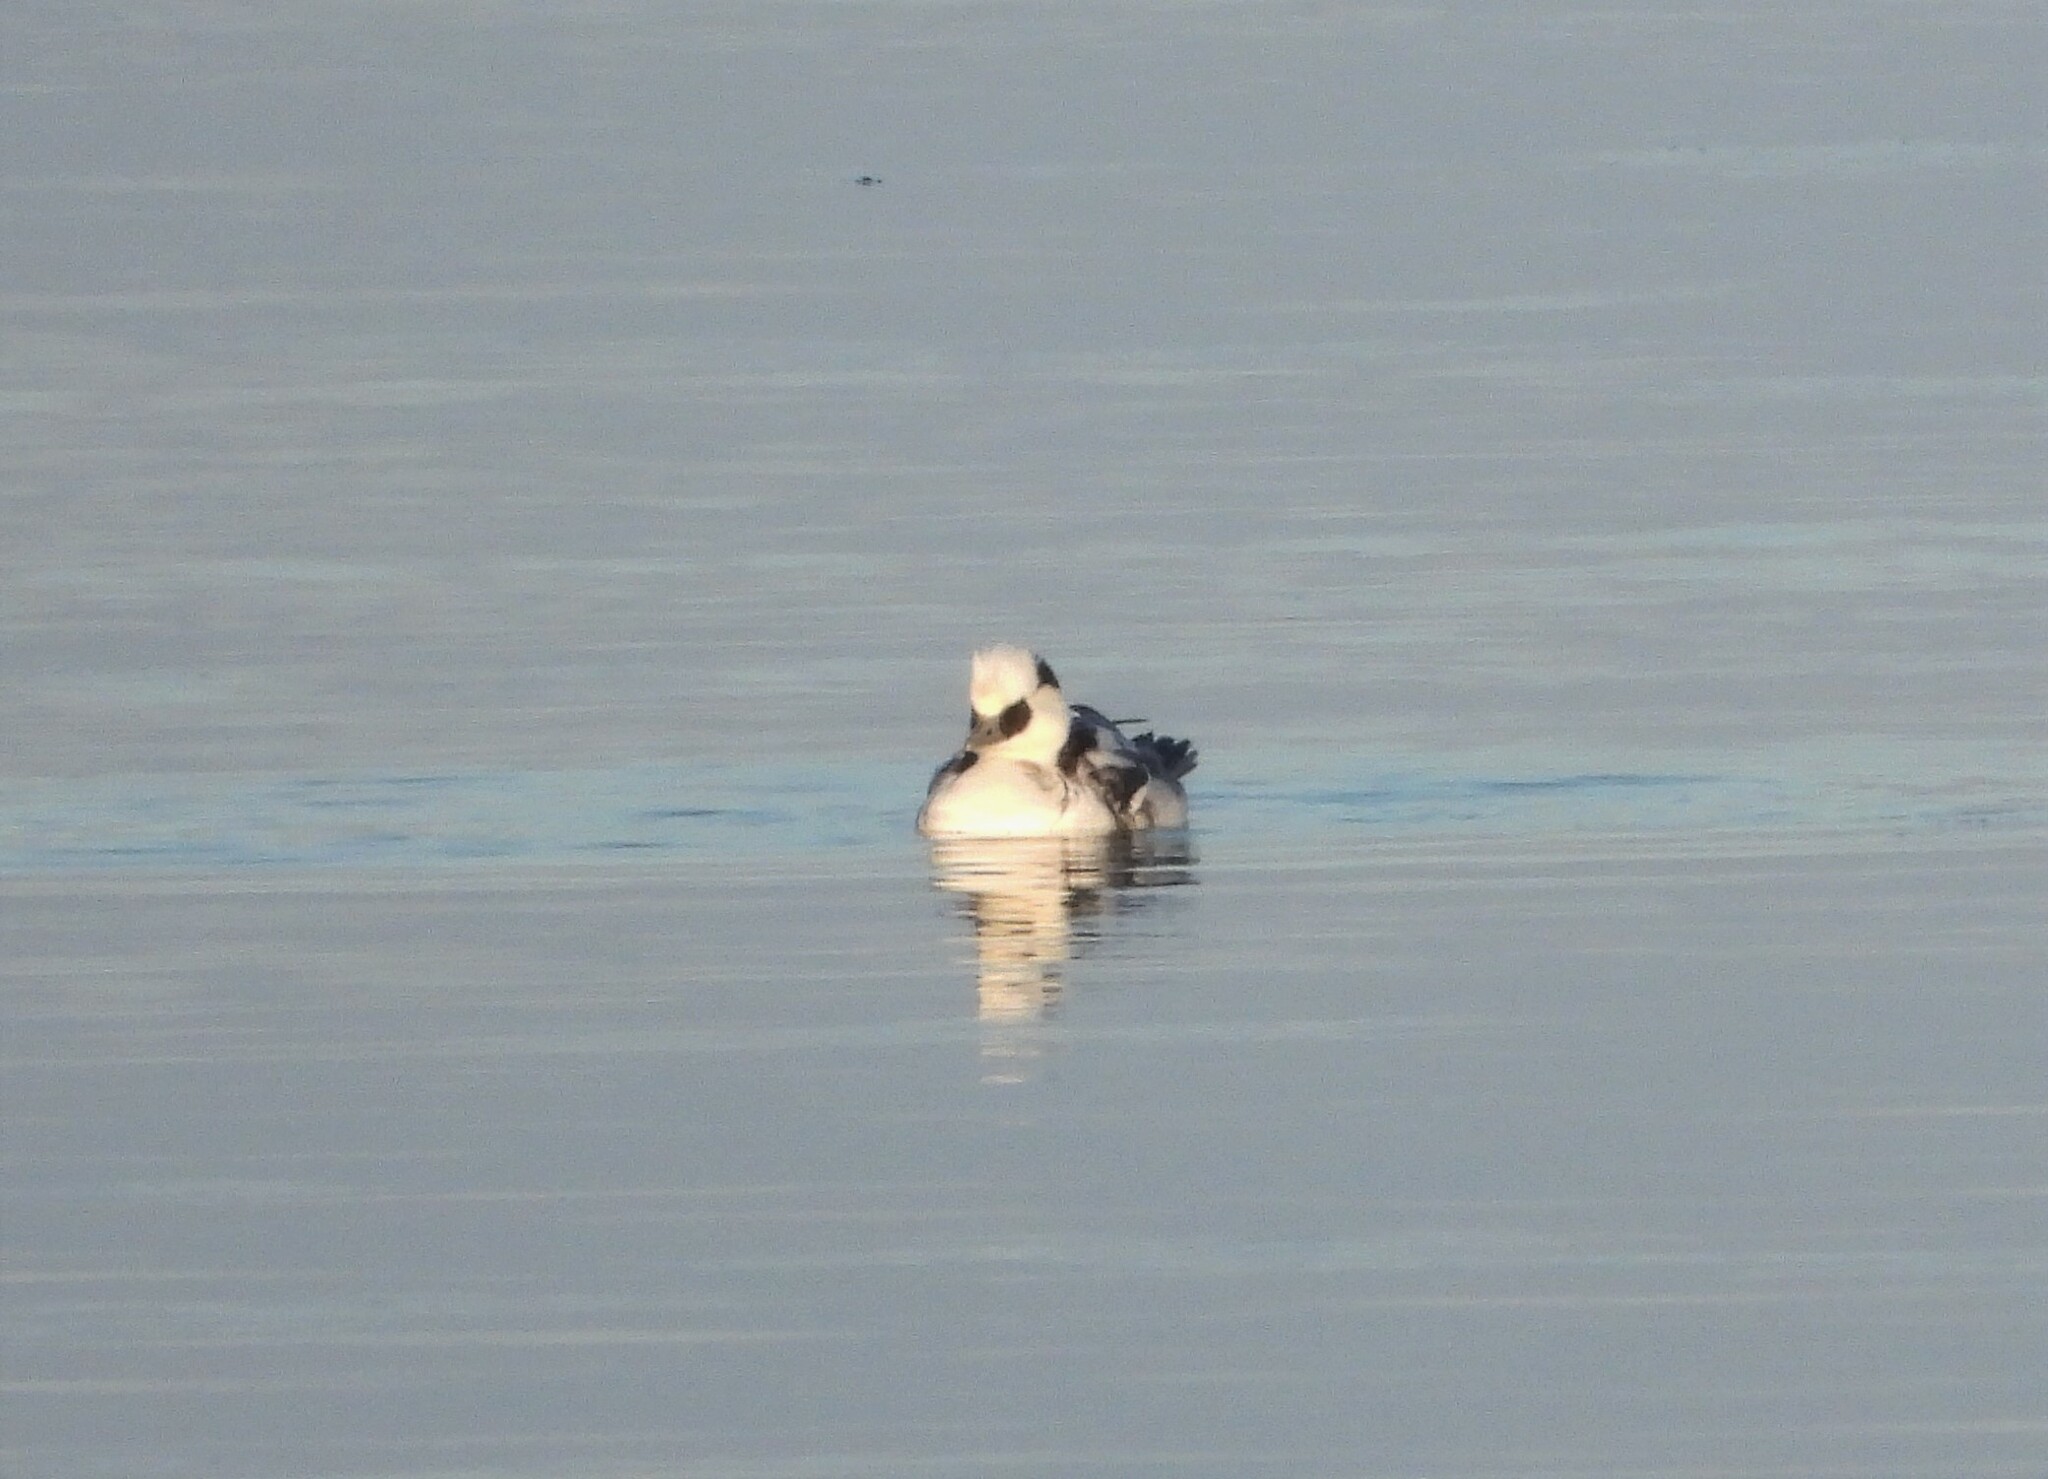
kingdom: Animalia
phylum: Chordata
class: Aves
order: Anseriformes
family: Anatidae
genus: Mergellus
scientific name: Mergellus albellus
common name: Smew
